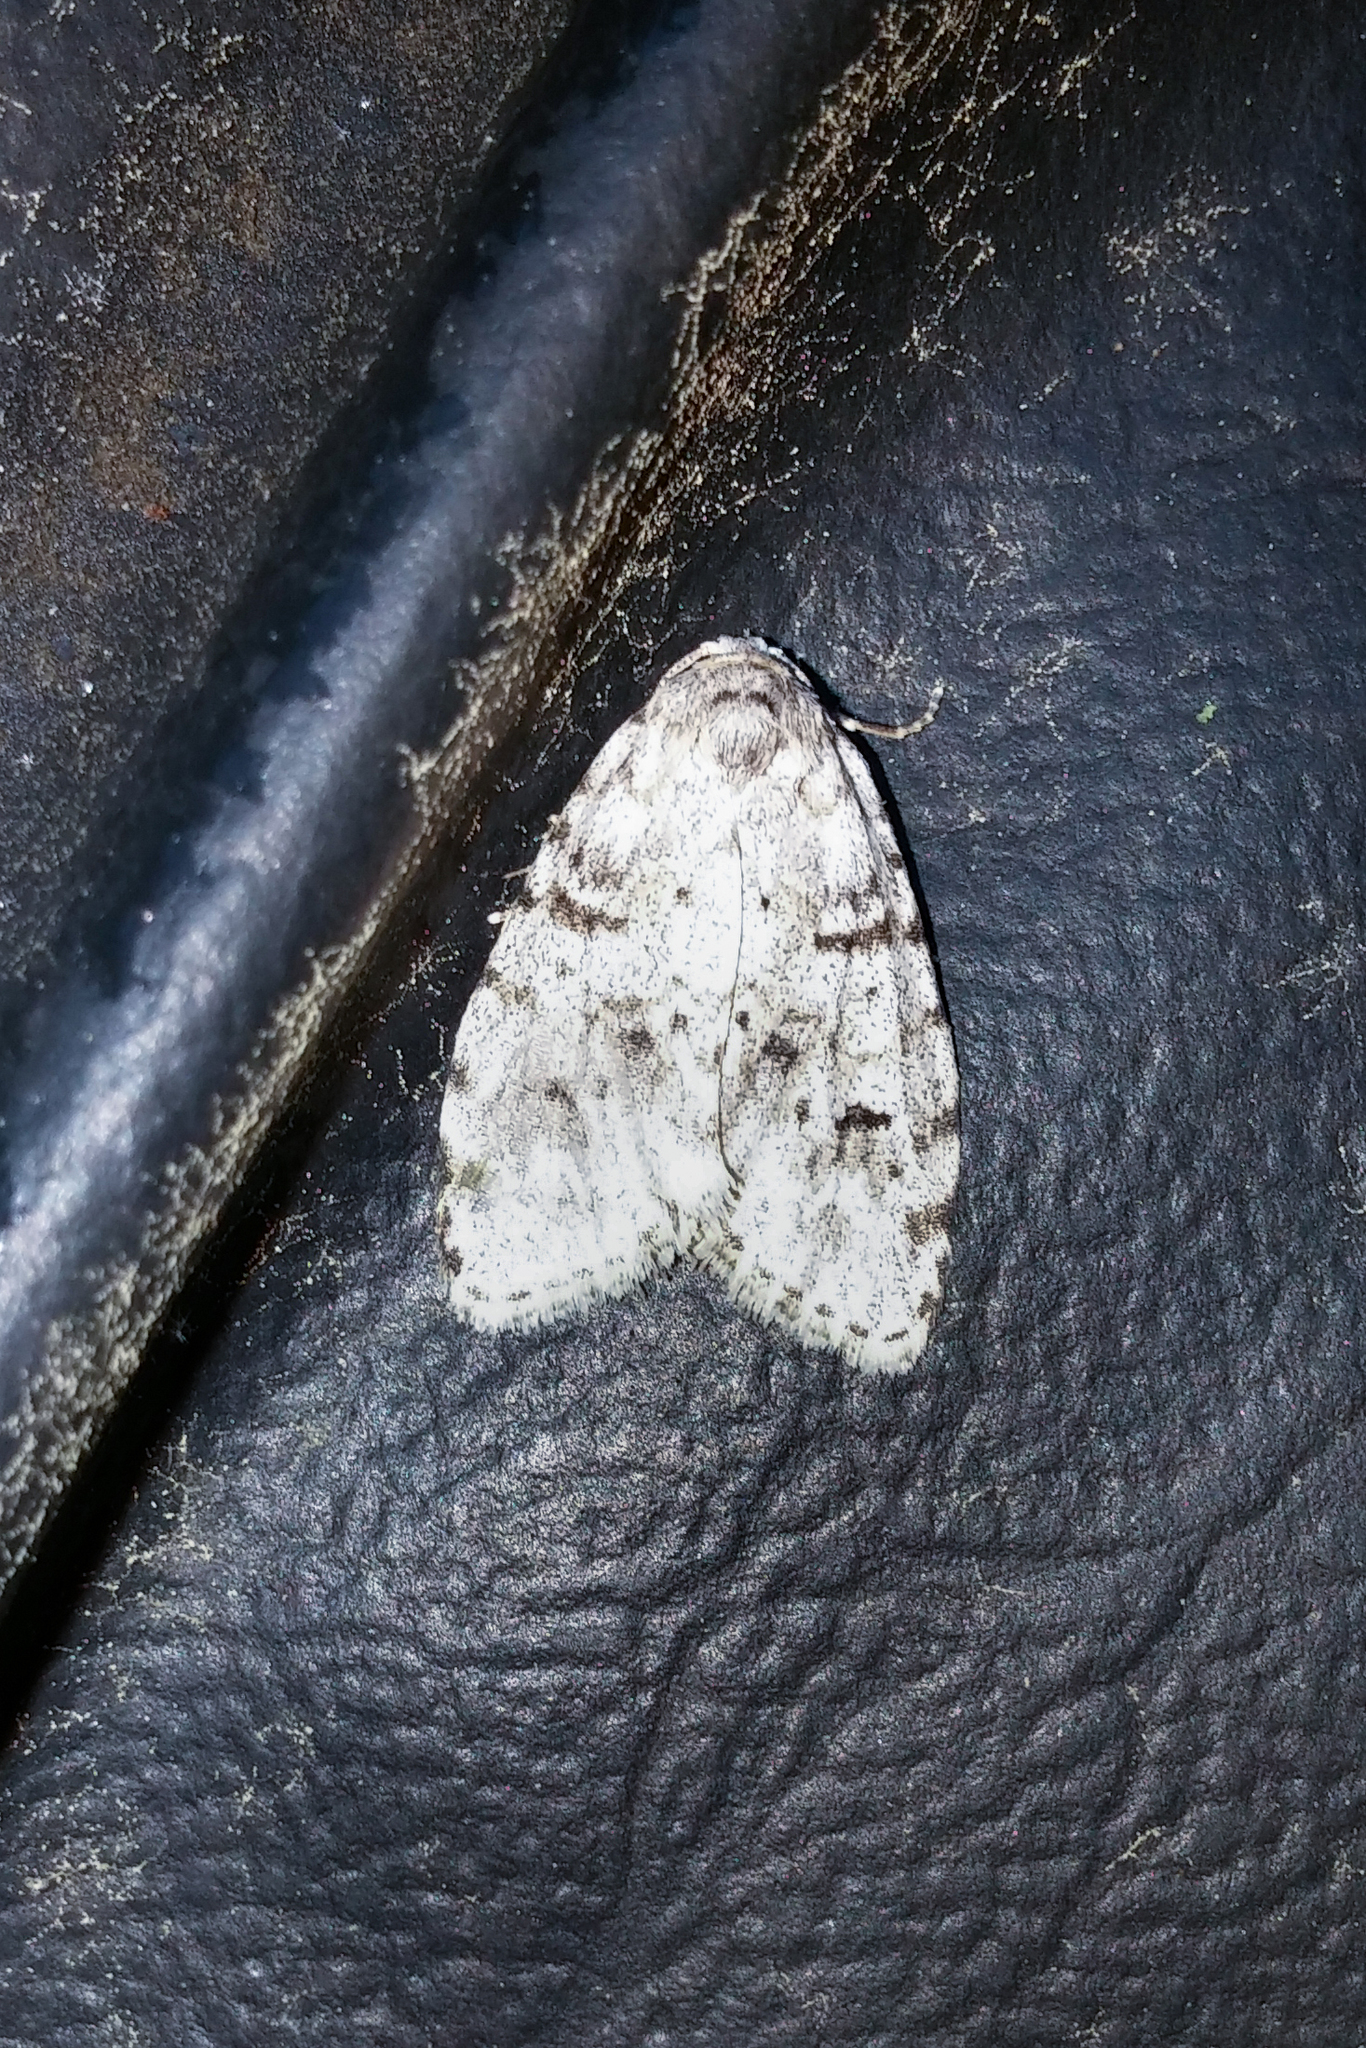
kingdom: Animalia
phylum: Arthropoda
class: Insecta
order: Lepidoptera
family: Erebidae
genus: Clemensia
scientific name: Clemensia albata
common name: Little white lichen moth
